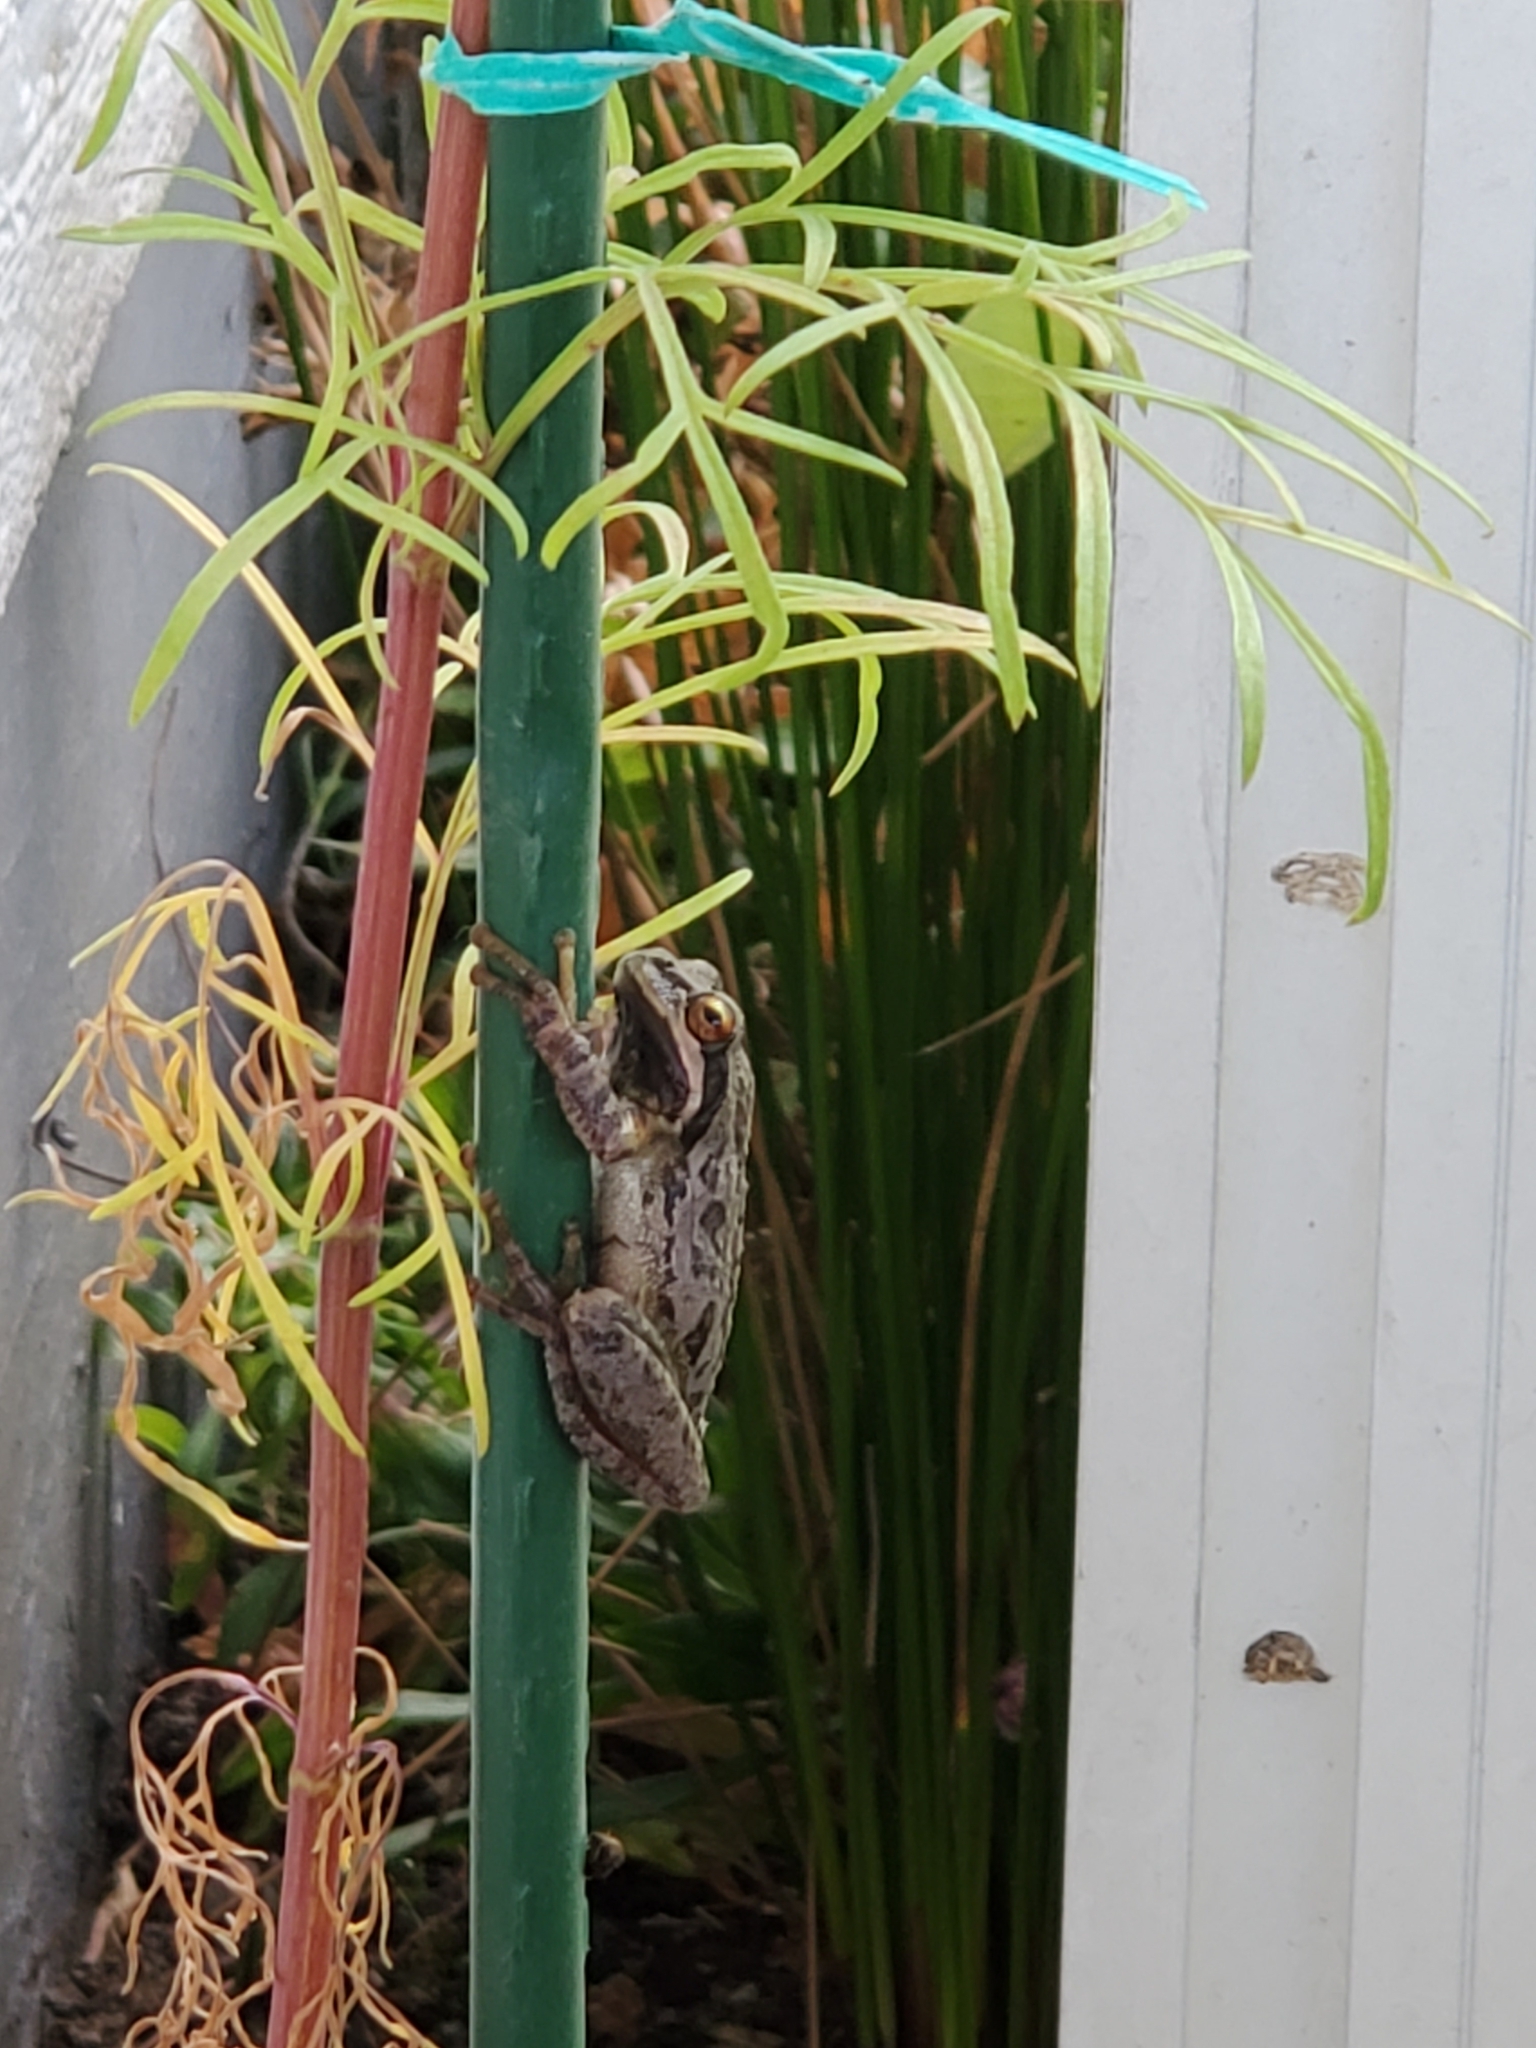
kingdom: Animalia
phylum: Chordata
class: Amphibia
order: Anura
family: Hylidae
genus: Pseudacris
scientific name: Pseudacris regilla
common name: Pacific chorus frog
